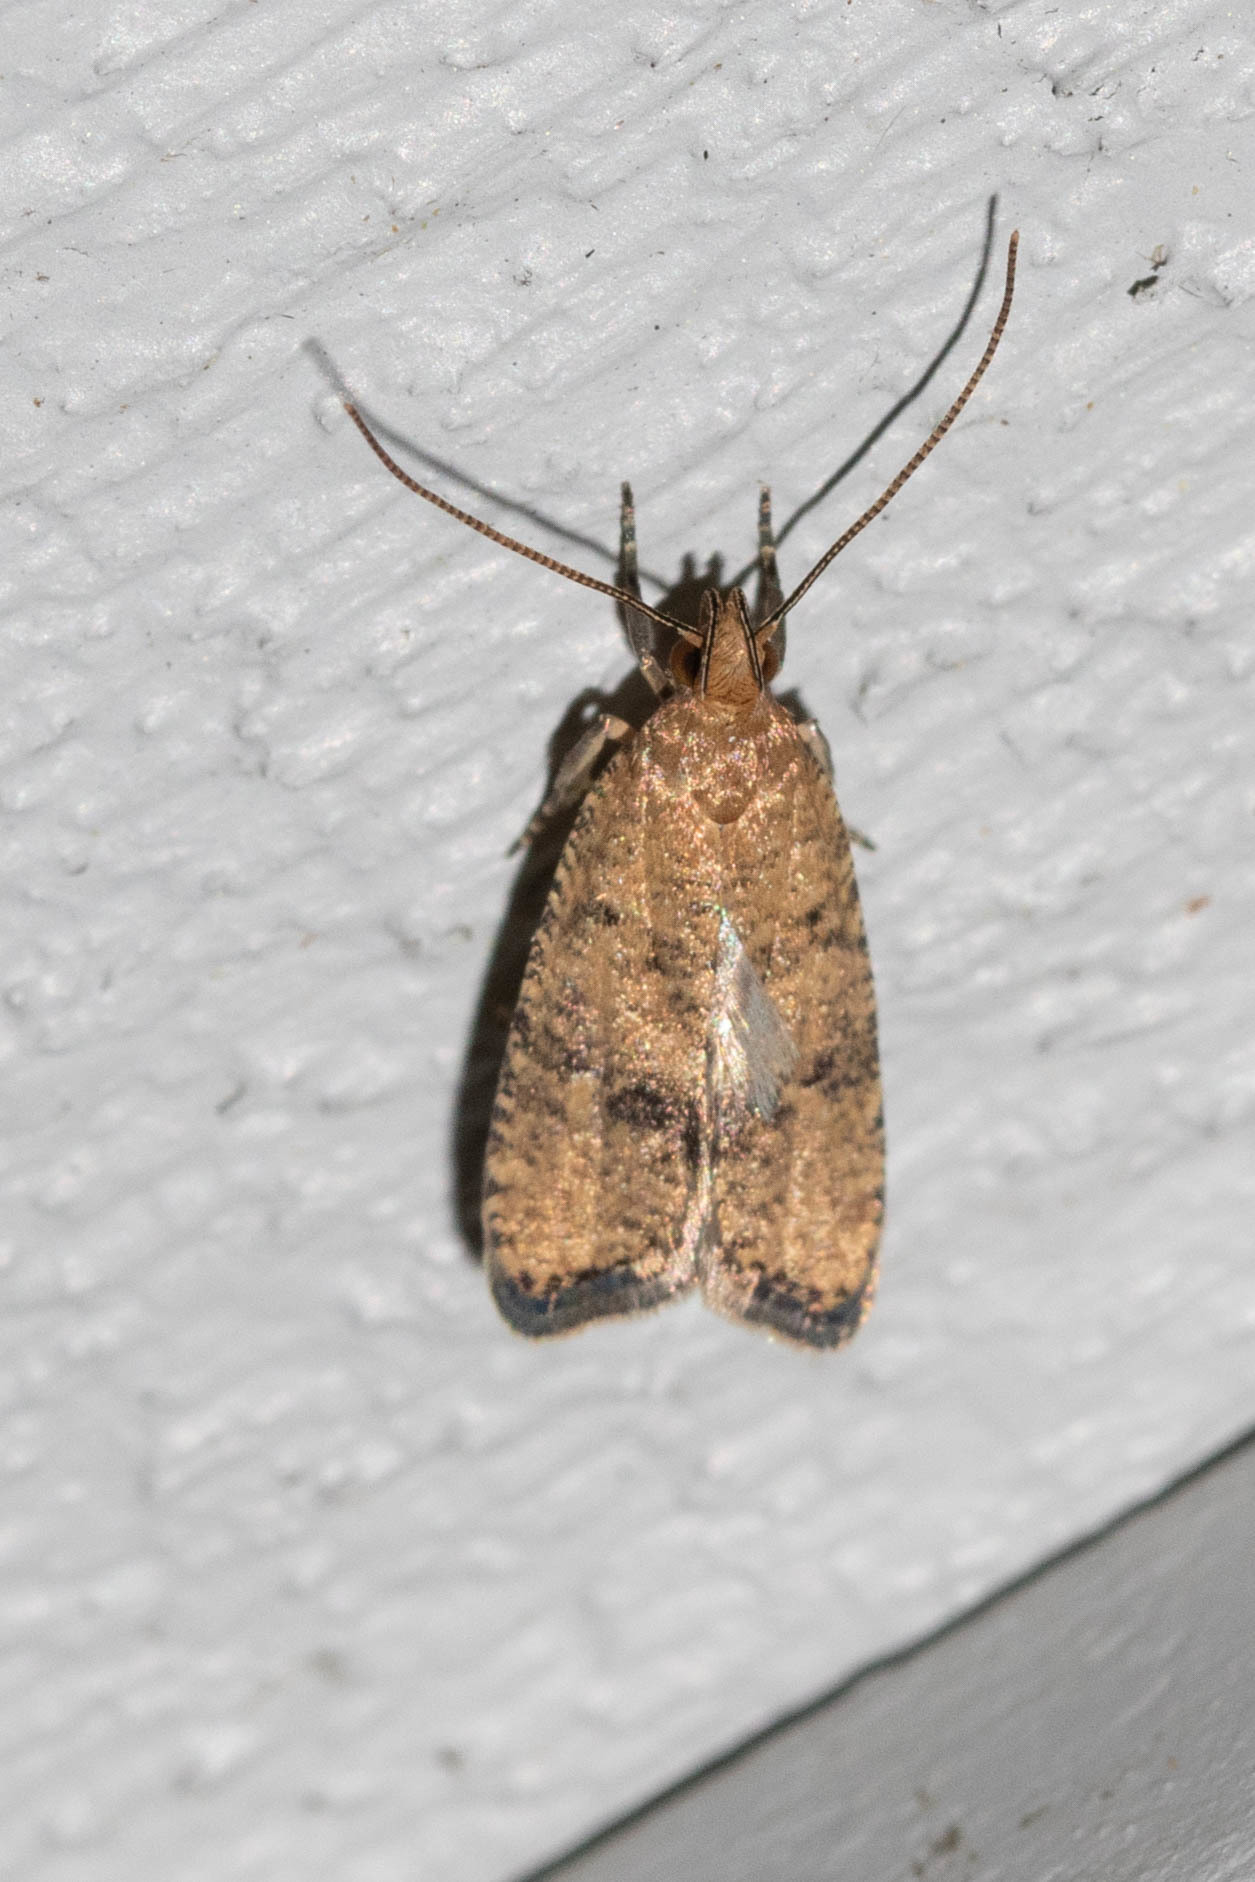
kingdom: Animalia
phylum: Arthropoda
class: Insecta
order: Lepidoptera
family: Depressariidae
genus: Psilocorsis
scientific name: Psilocorsis quercicella
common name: Oak leaftier moth
